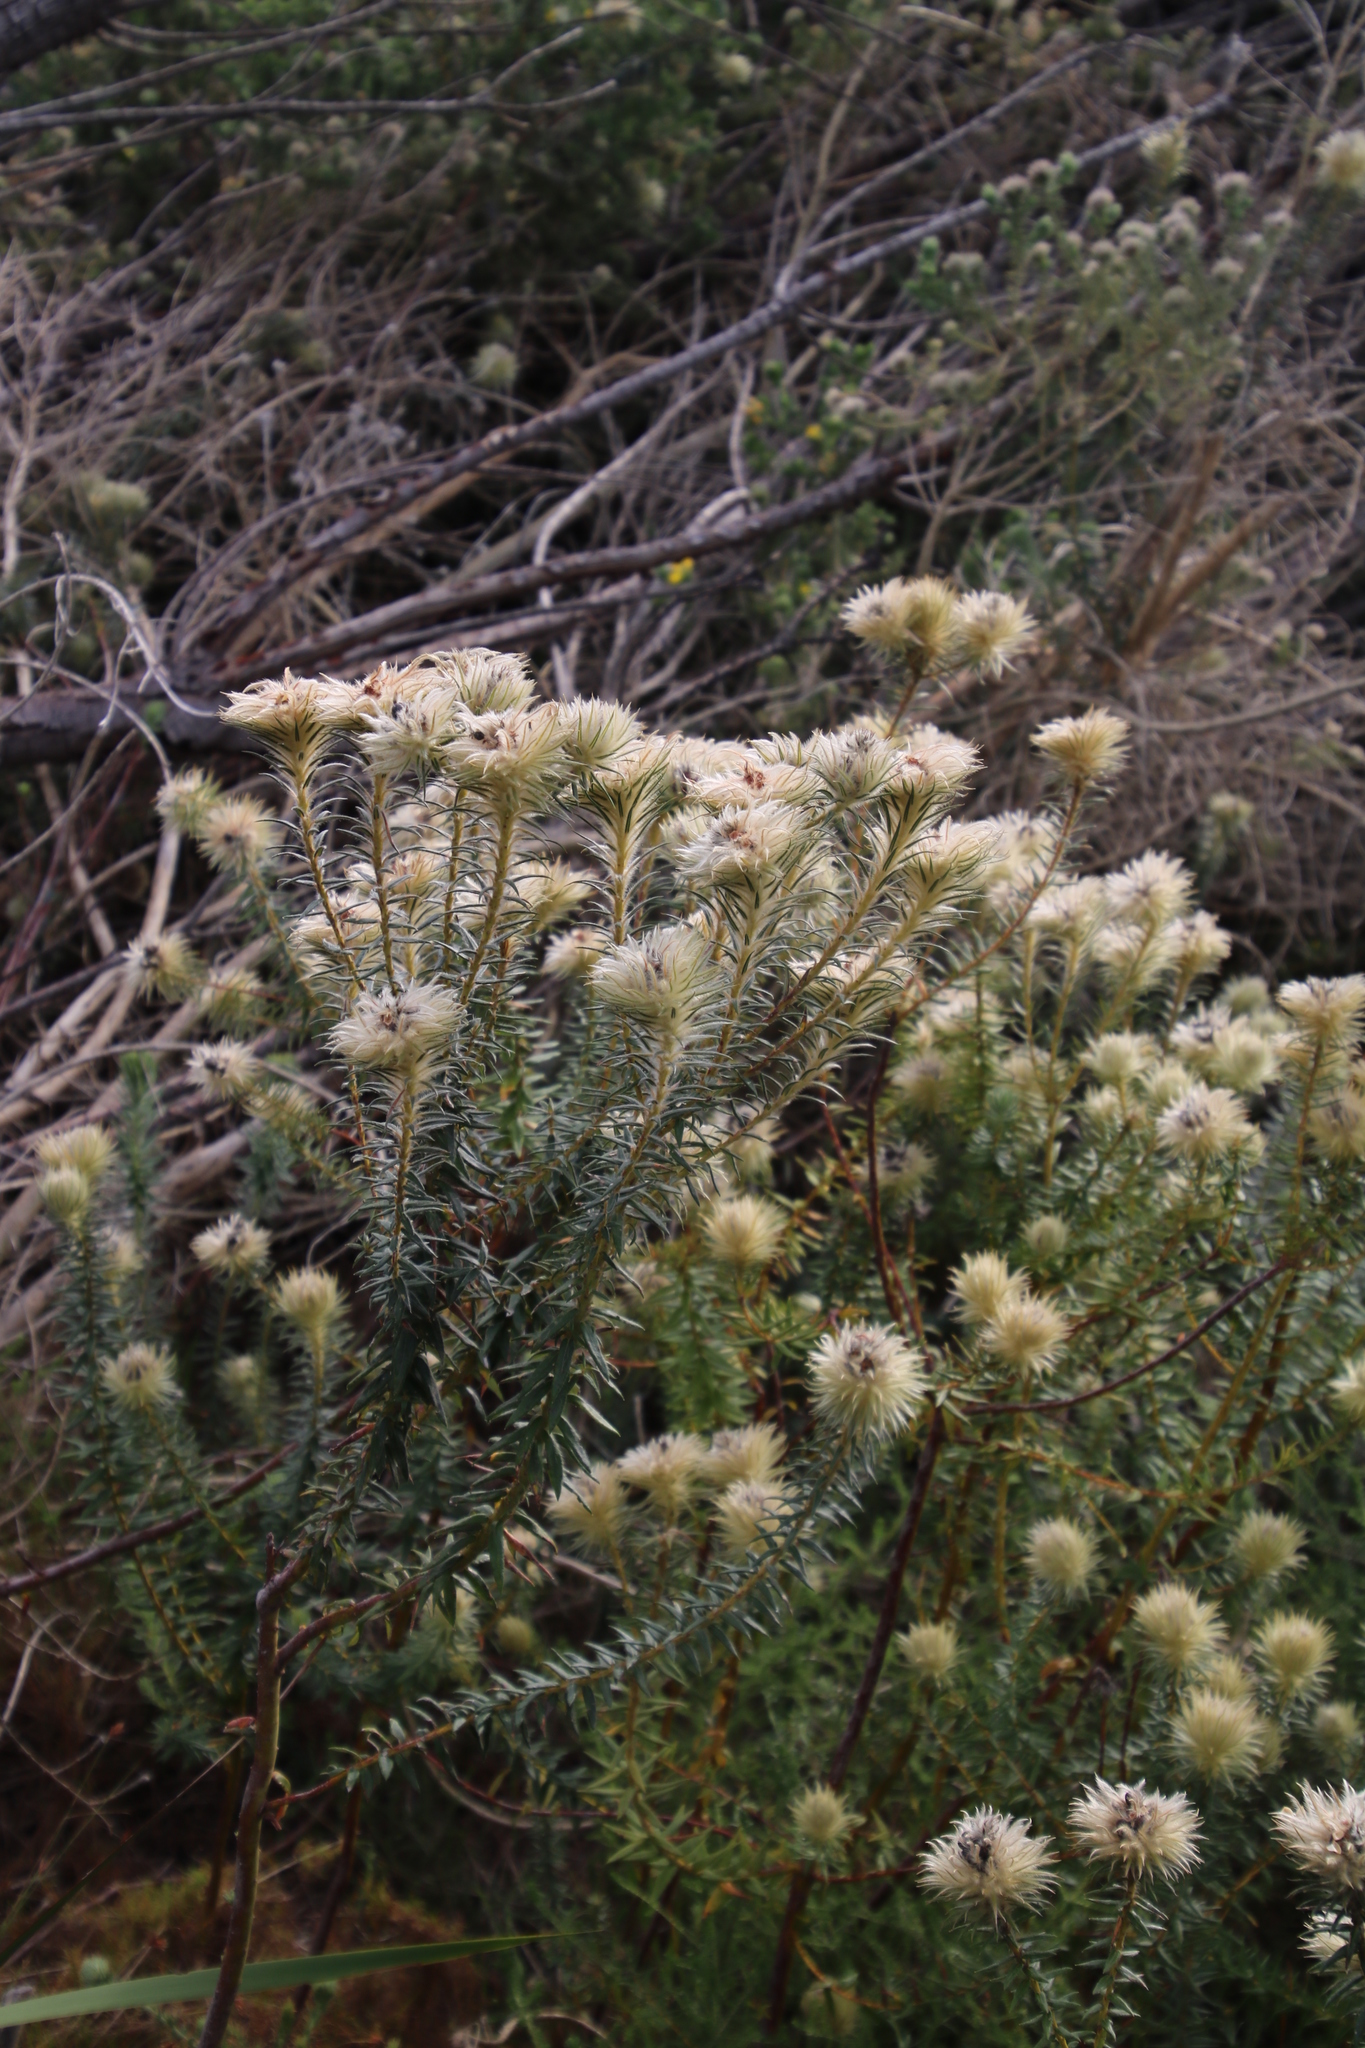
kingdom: Plantae
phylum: Tracheophyta
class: Magnoliopsida
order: Rosales
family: Rhamnaceae
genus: Phylica
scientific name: Phylica pubescens
